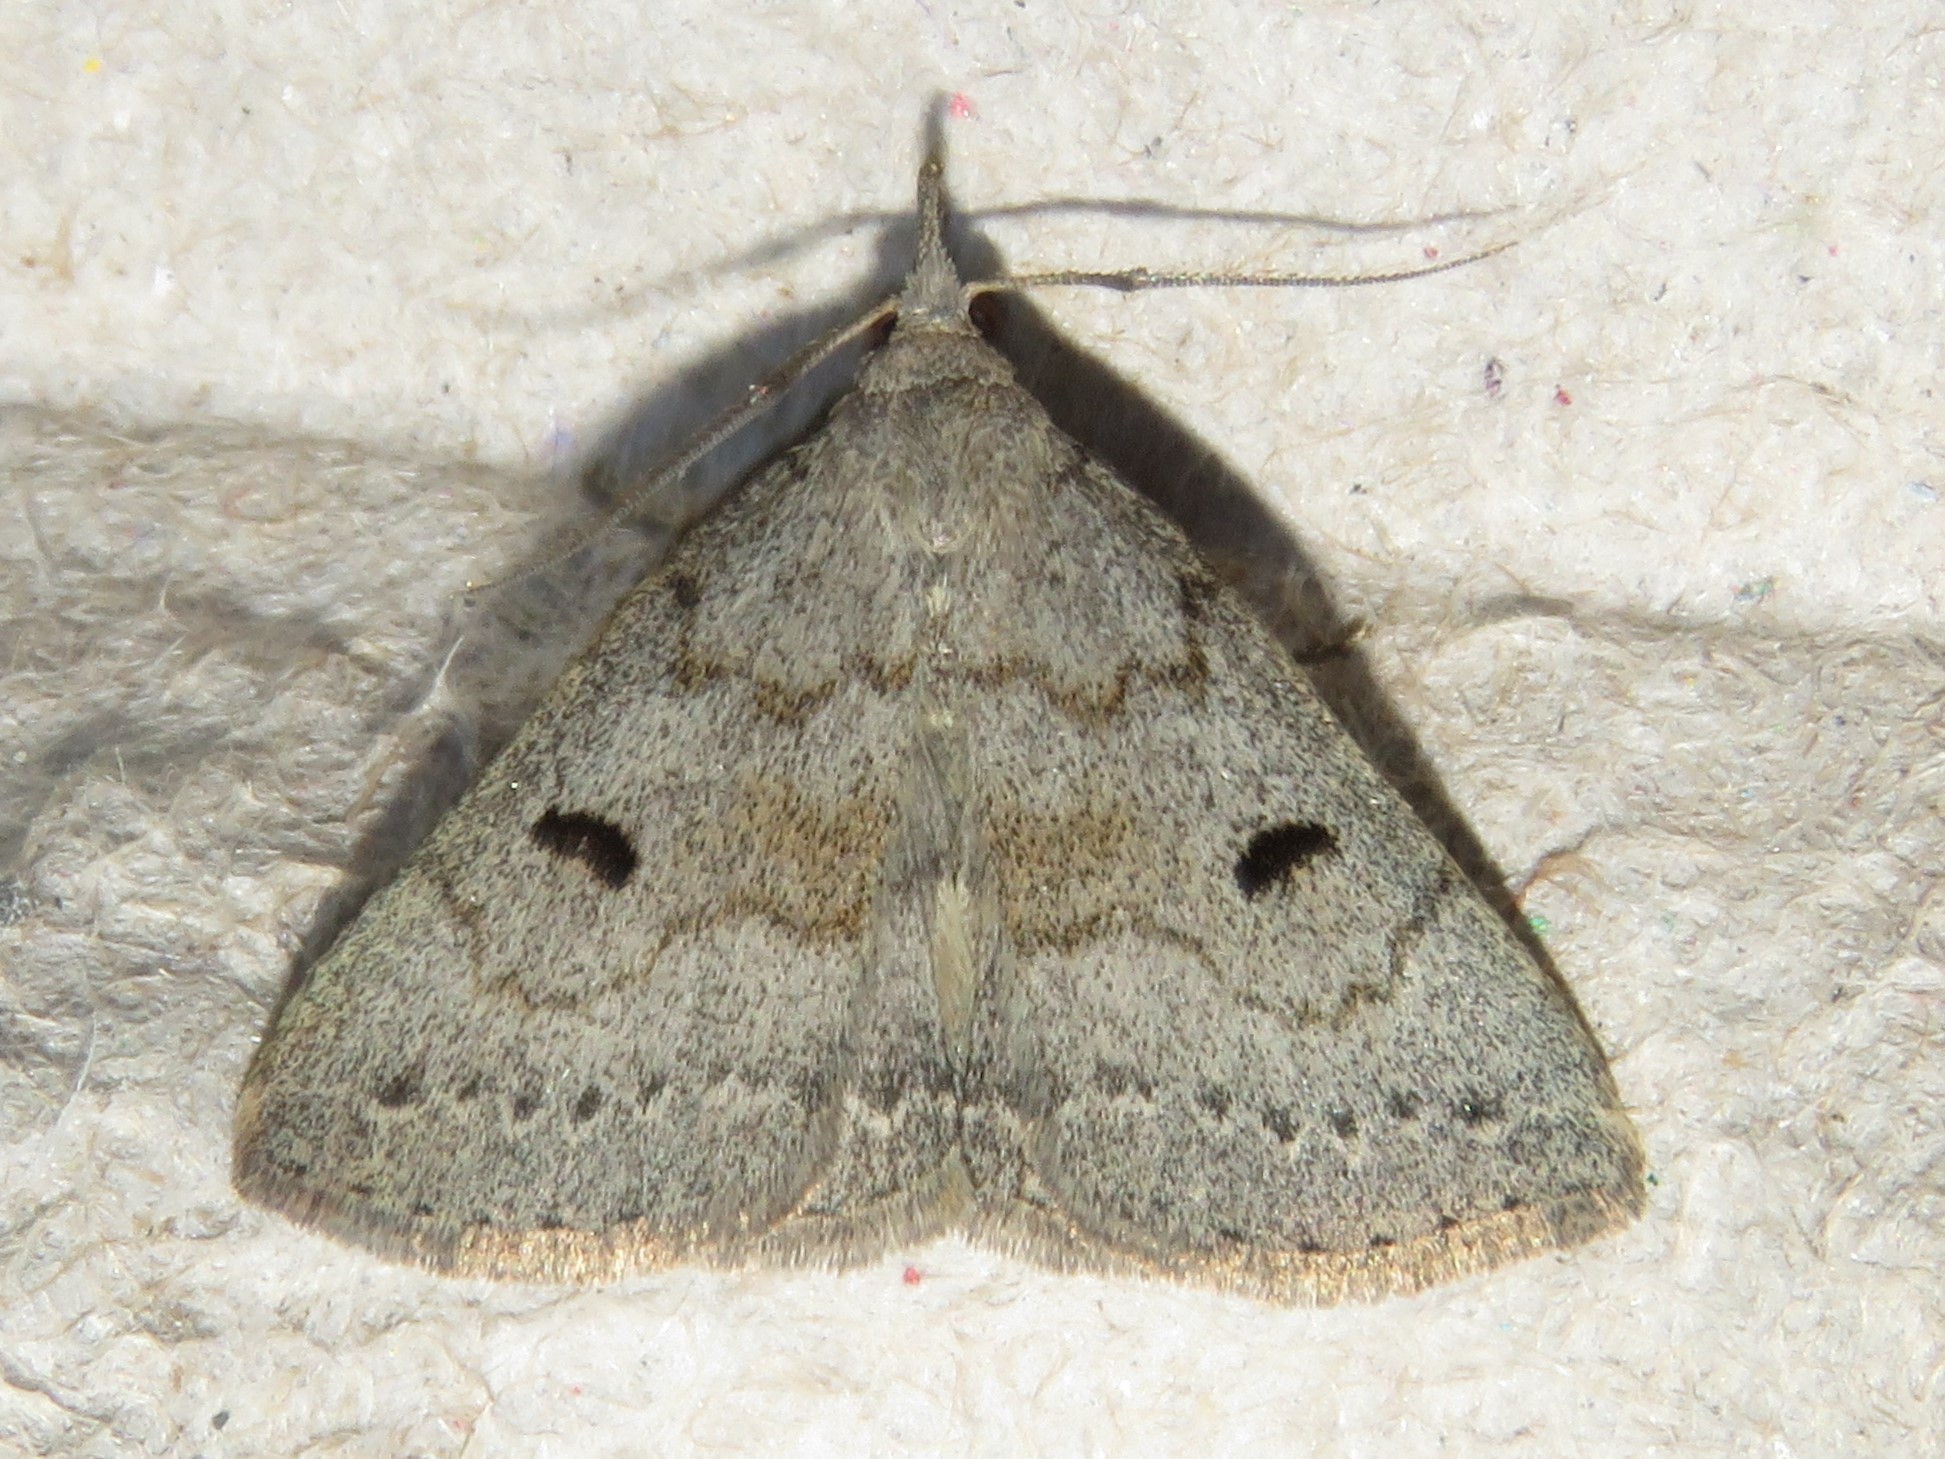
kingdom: Animalia
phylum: Arthropoda
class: Insecta
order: Lepidoptera
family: Erebidae
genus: Macrochilo
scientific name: Macrochilo morbidalis
